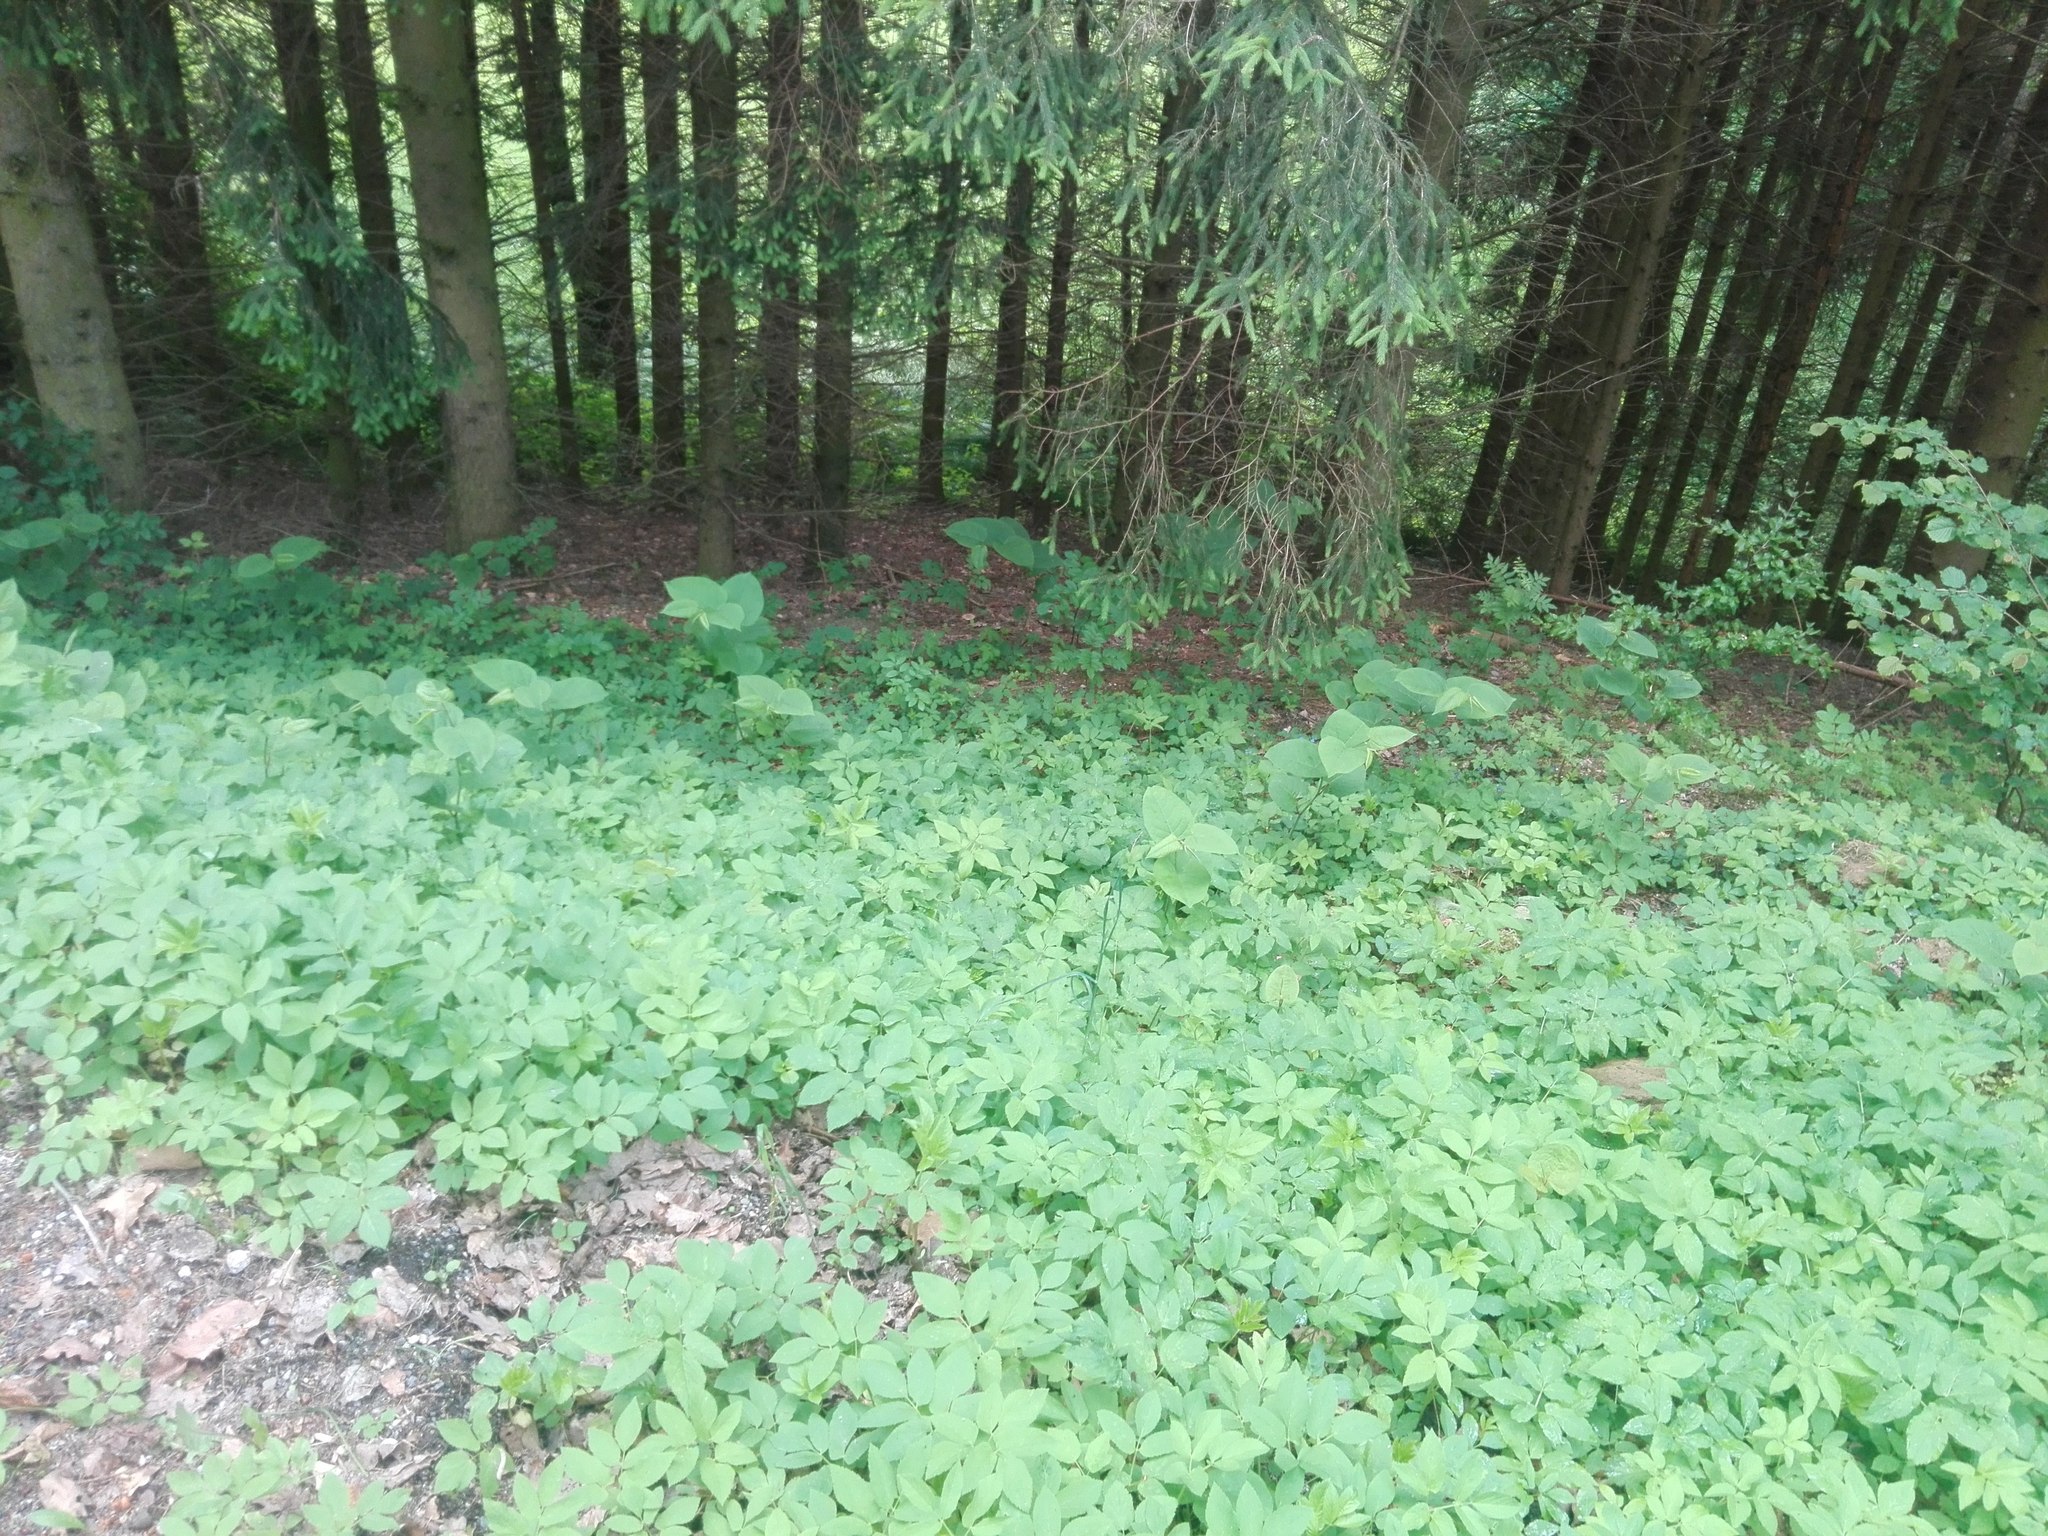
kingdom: Plantae
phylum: Tracheophyta
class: Magnoliopsida
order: Caryophyllales
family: Polygonaceae
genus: Reynoutria
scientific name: Reynoutria bohemica
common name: Bohemian knotweed
